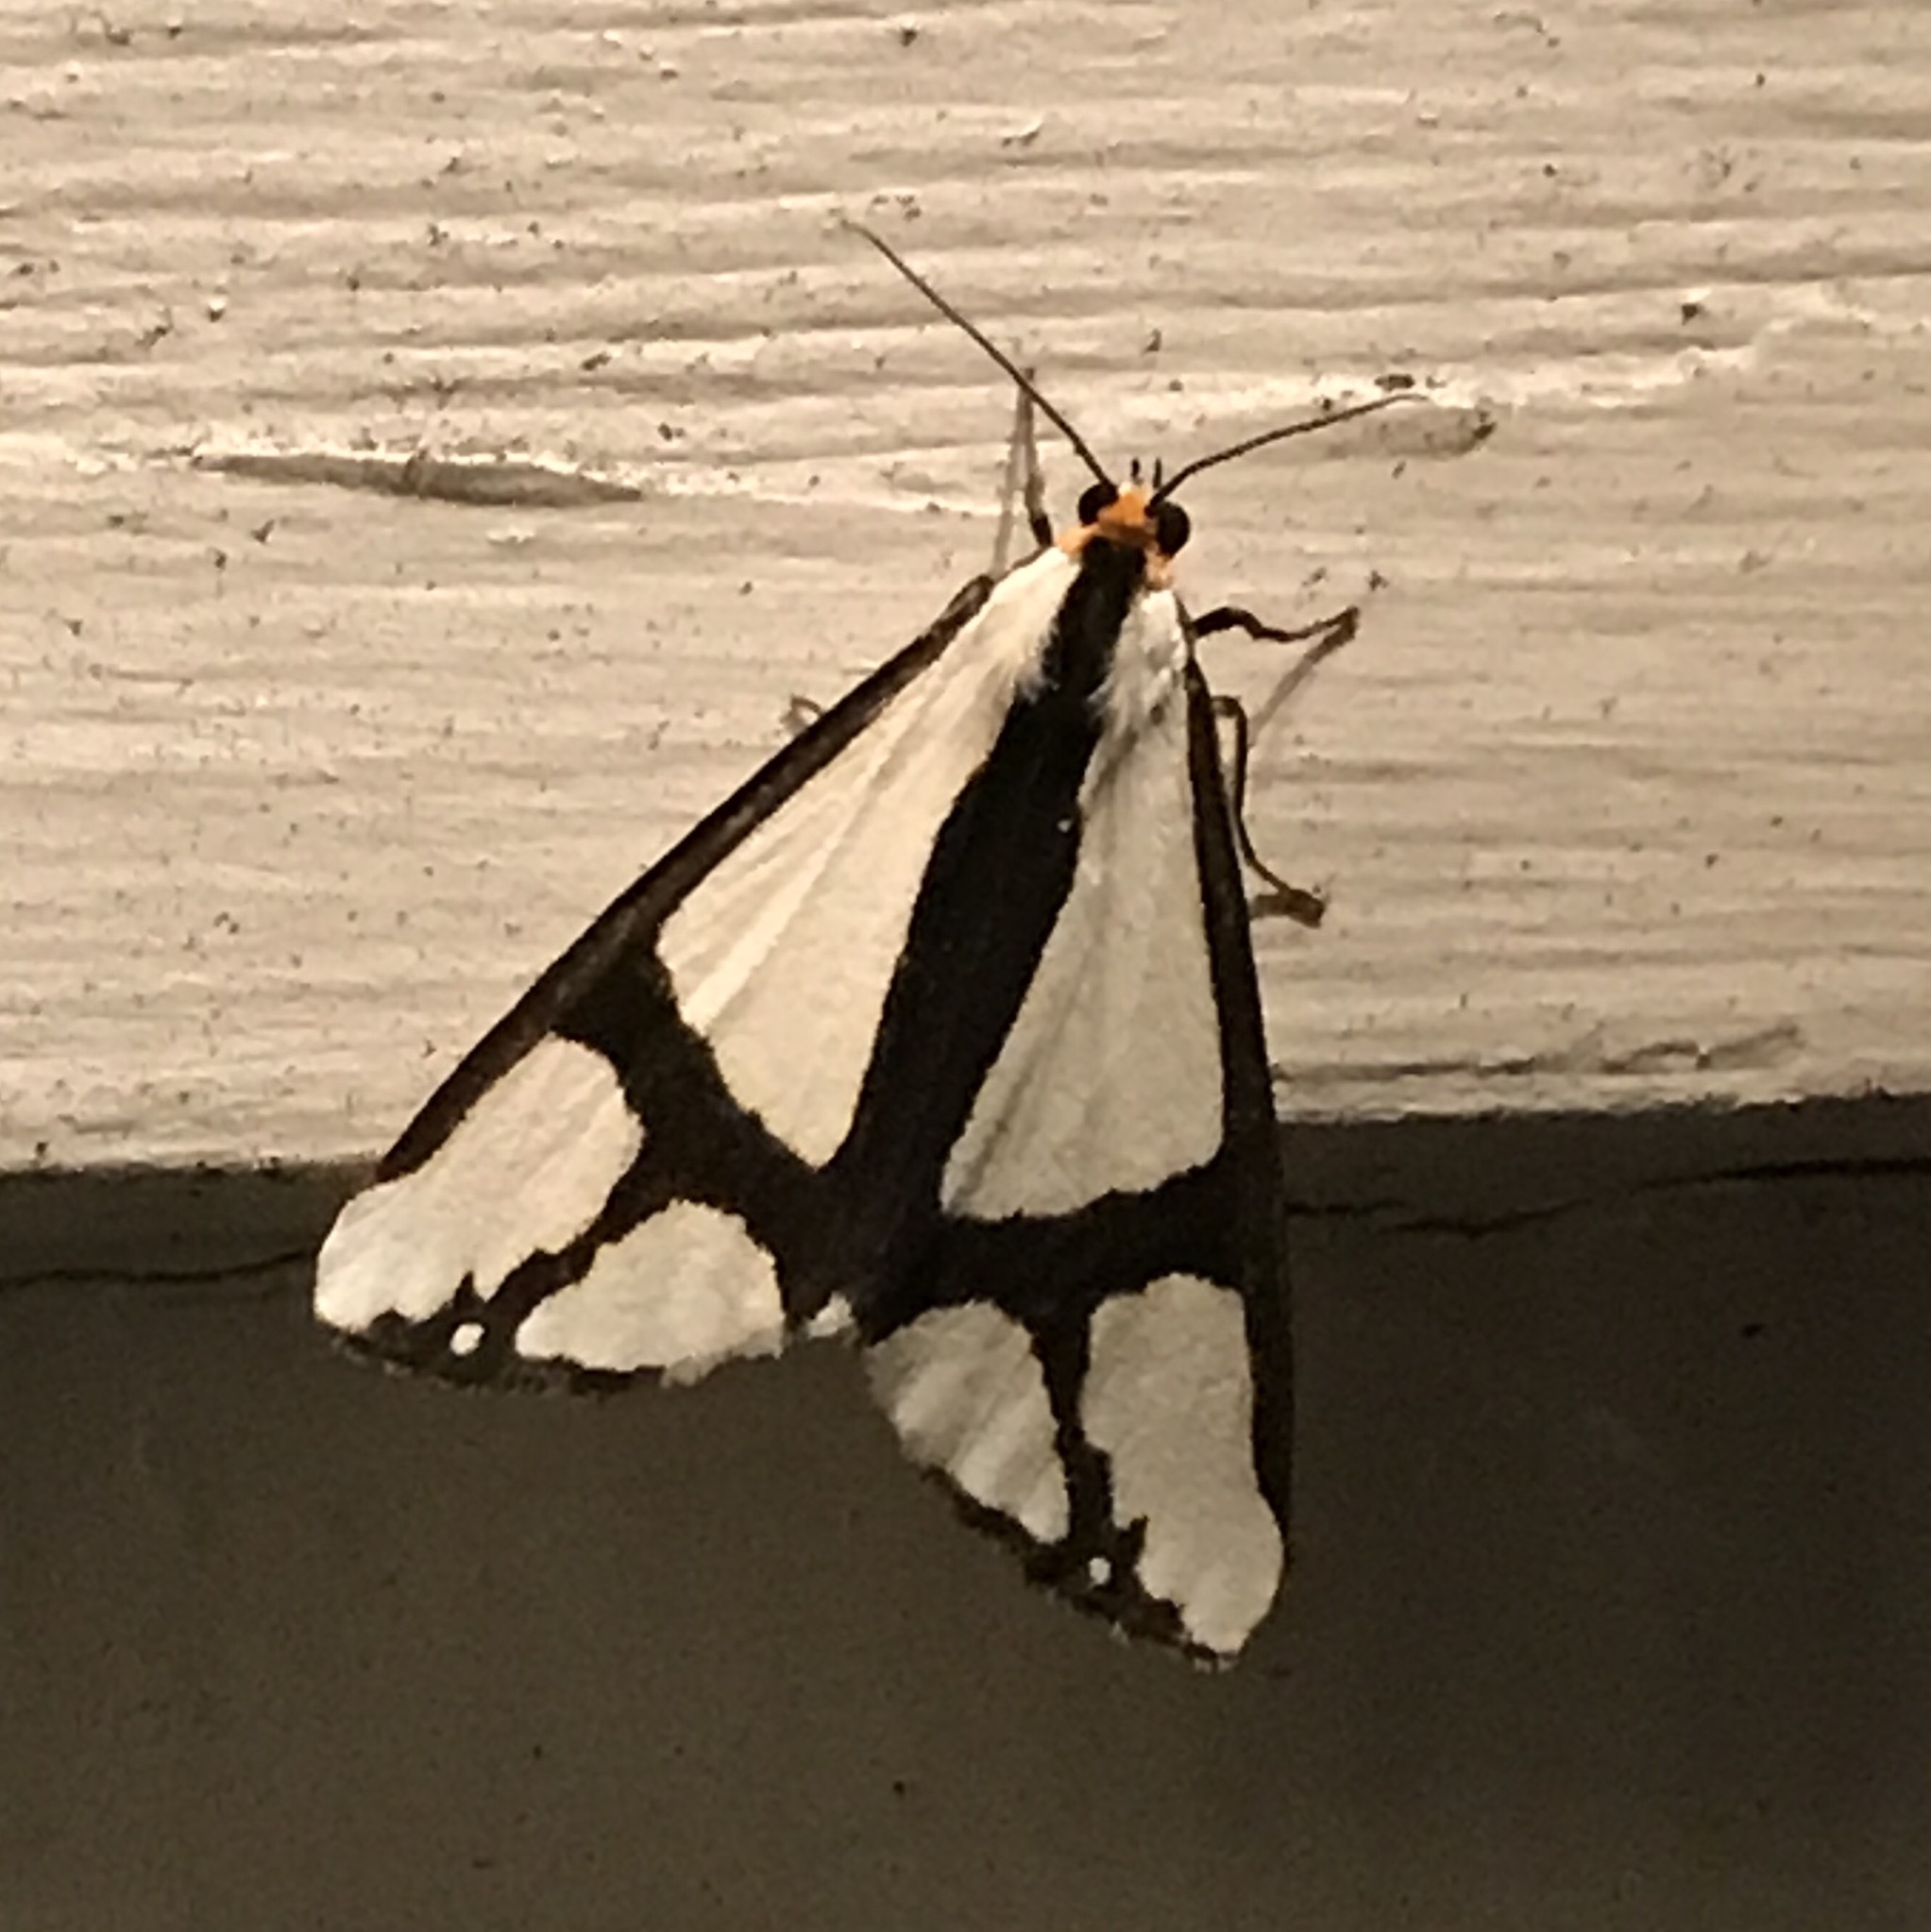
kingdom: Animalia
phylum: Arthropoda
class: Insecta
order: Lepidoptera
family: Erebidae
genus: Haploa
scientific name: Haploa contigua
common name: Neighbor moth
